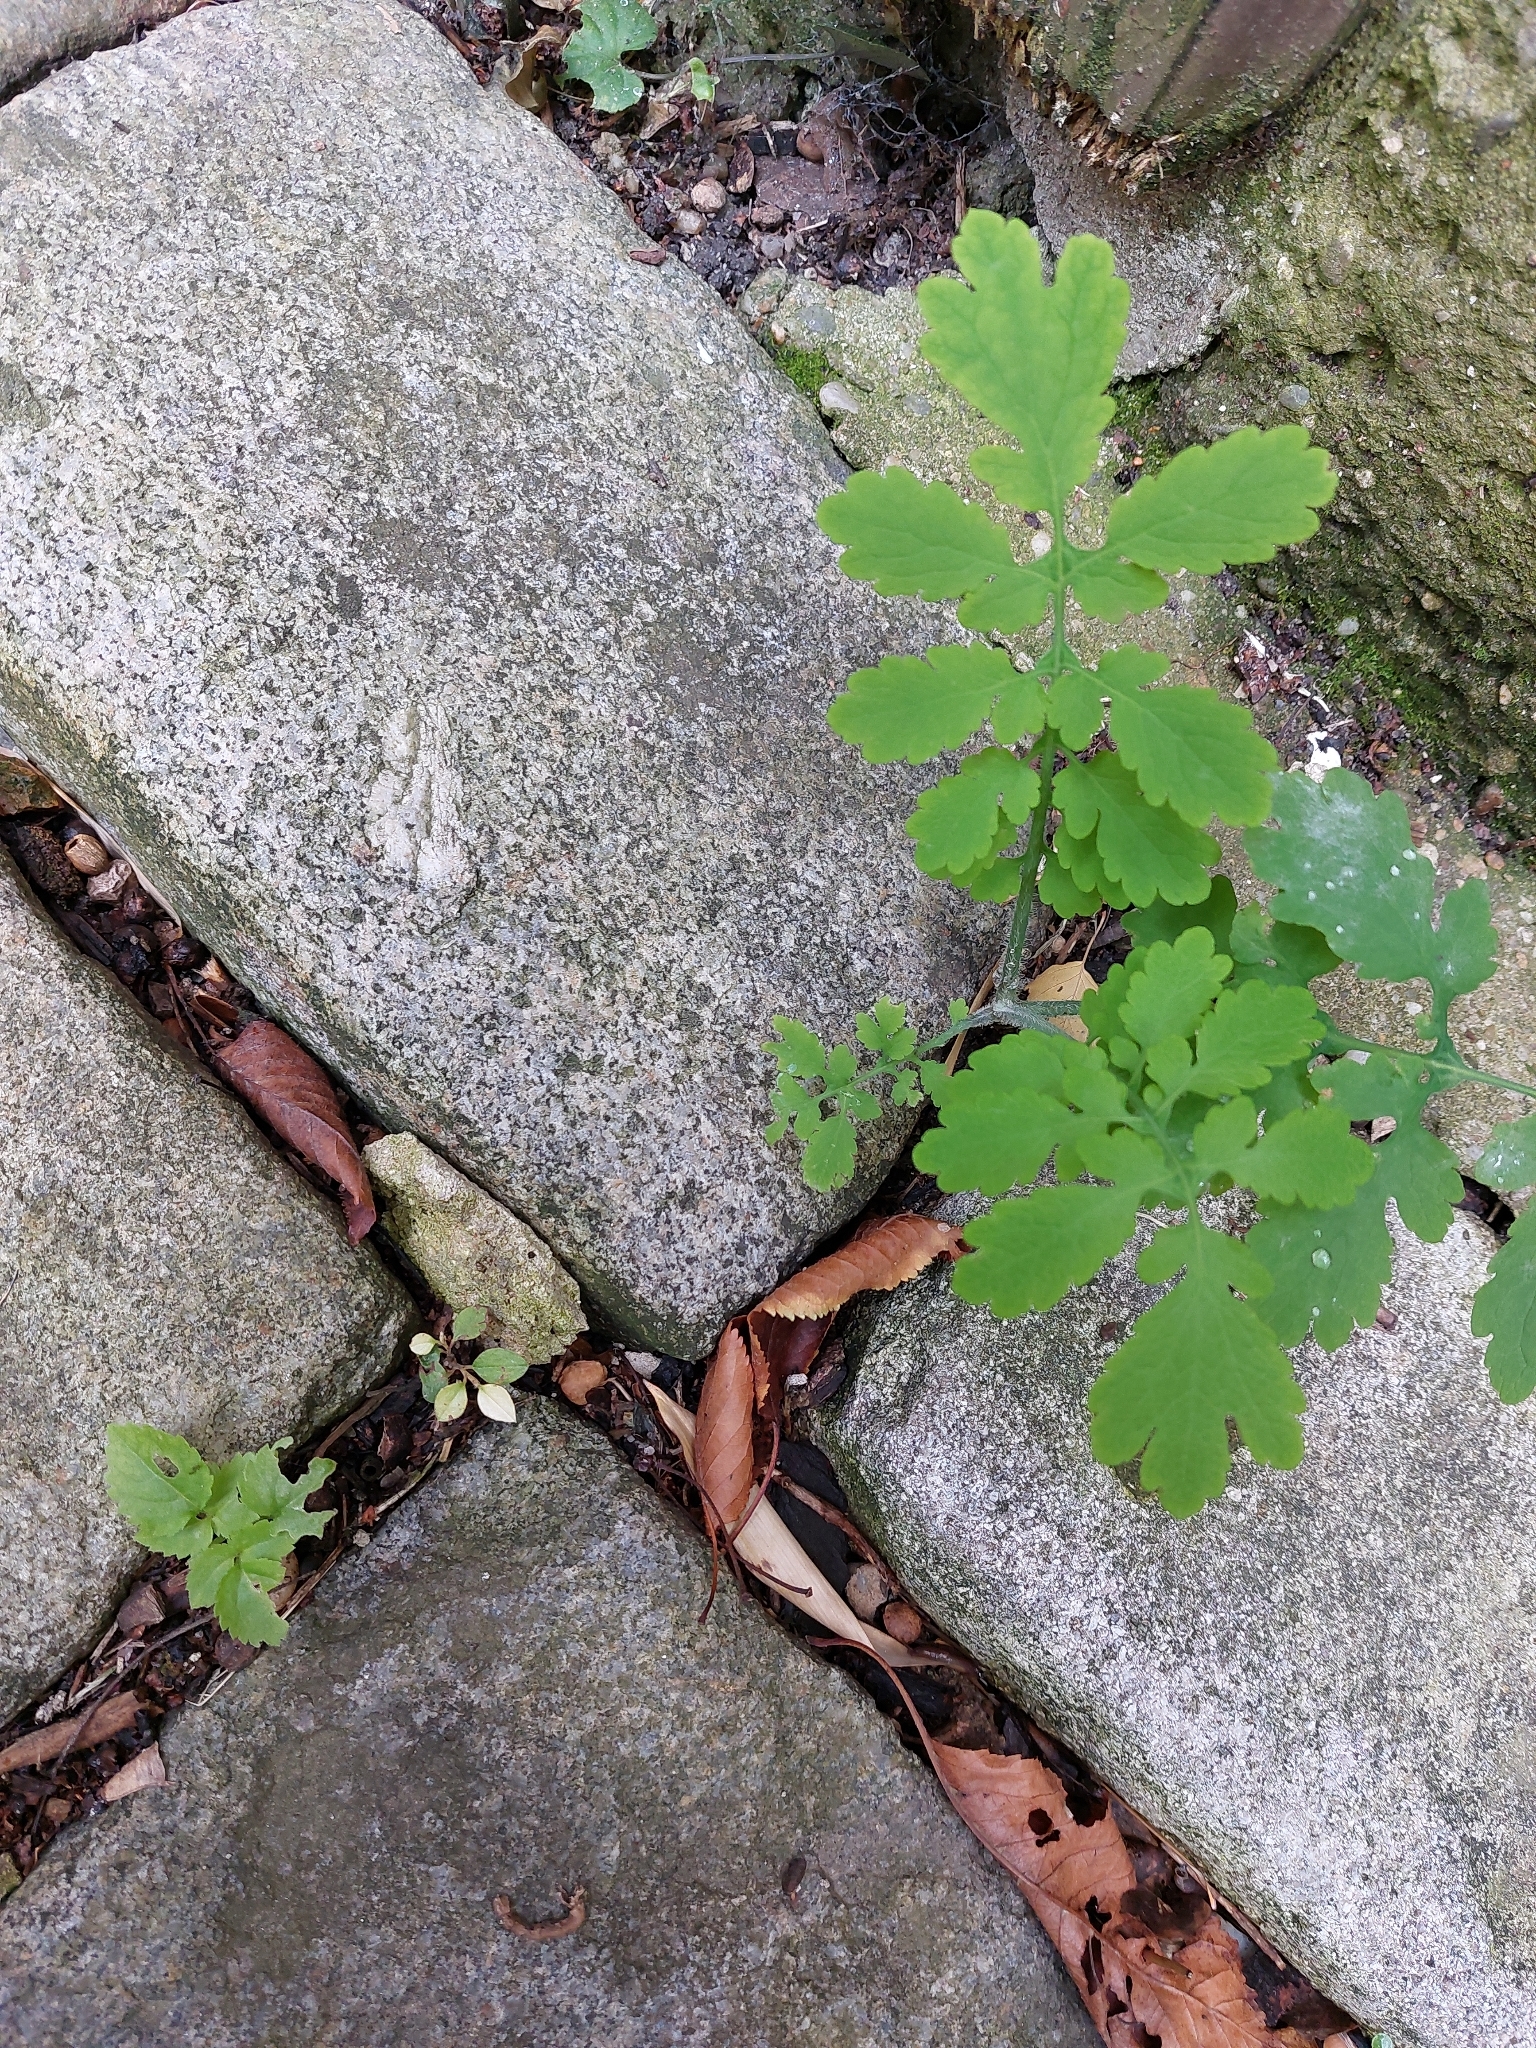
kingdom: Plantae
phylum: Tracheophyta
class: Magnoliopsida
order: Ranunculales
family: Papaveraceae
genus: Chelidonium
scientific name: Chelidonium majus
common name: Greater celandine
